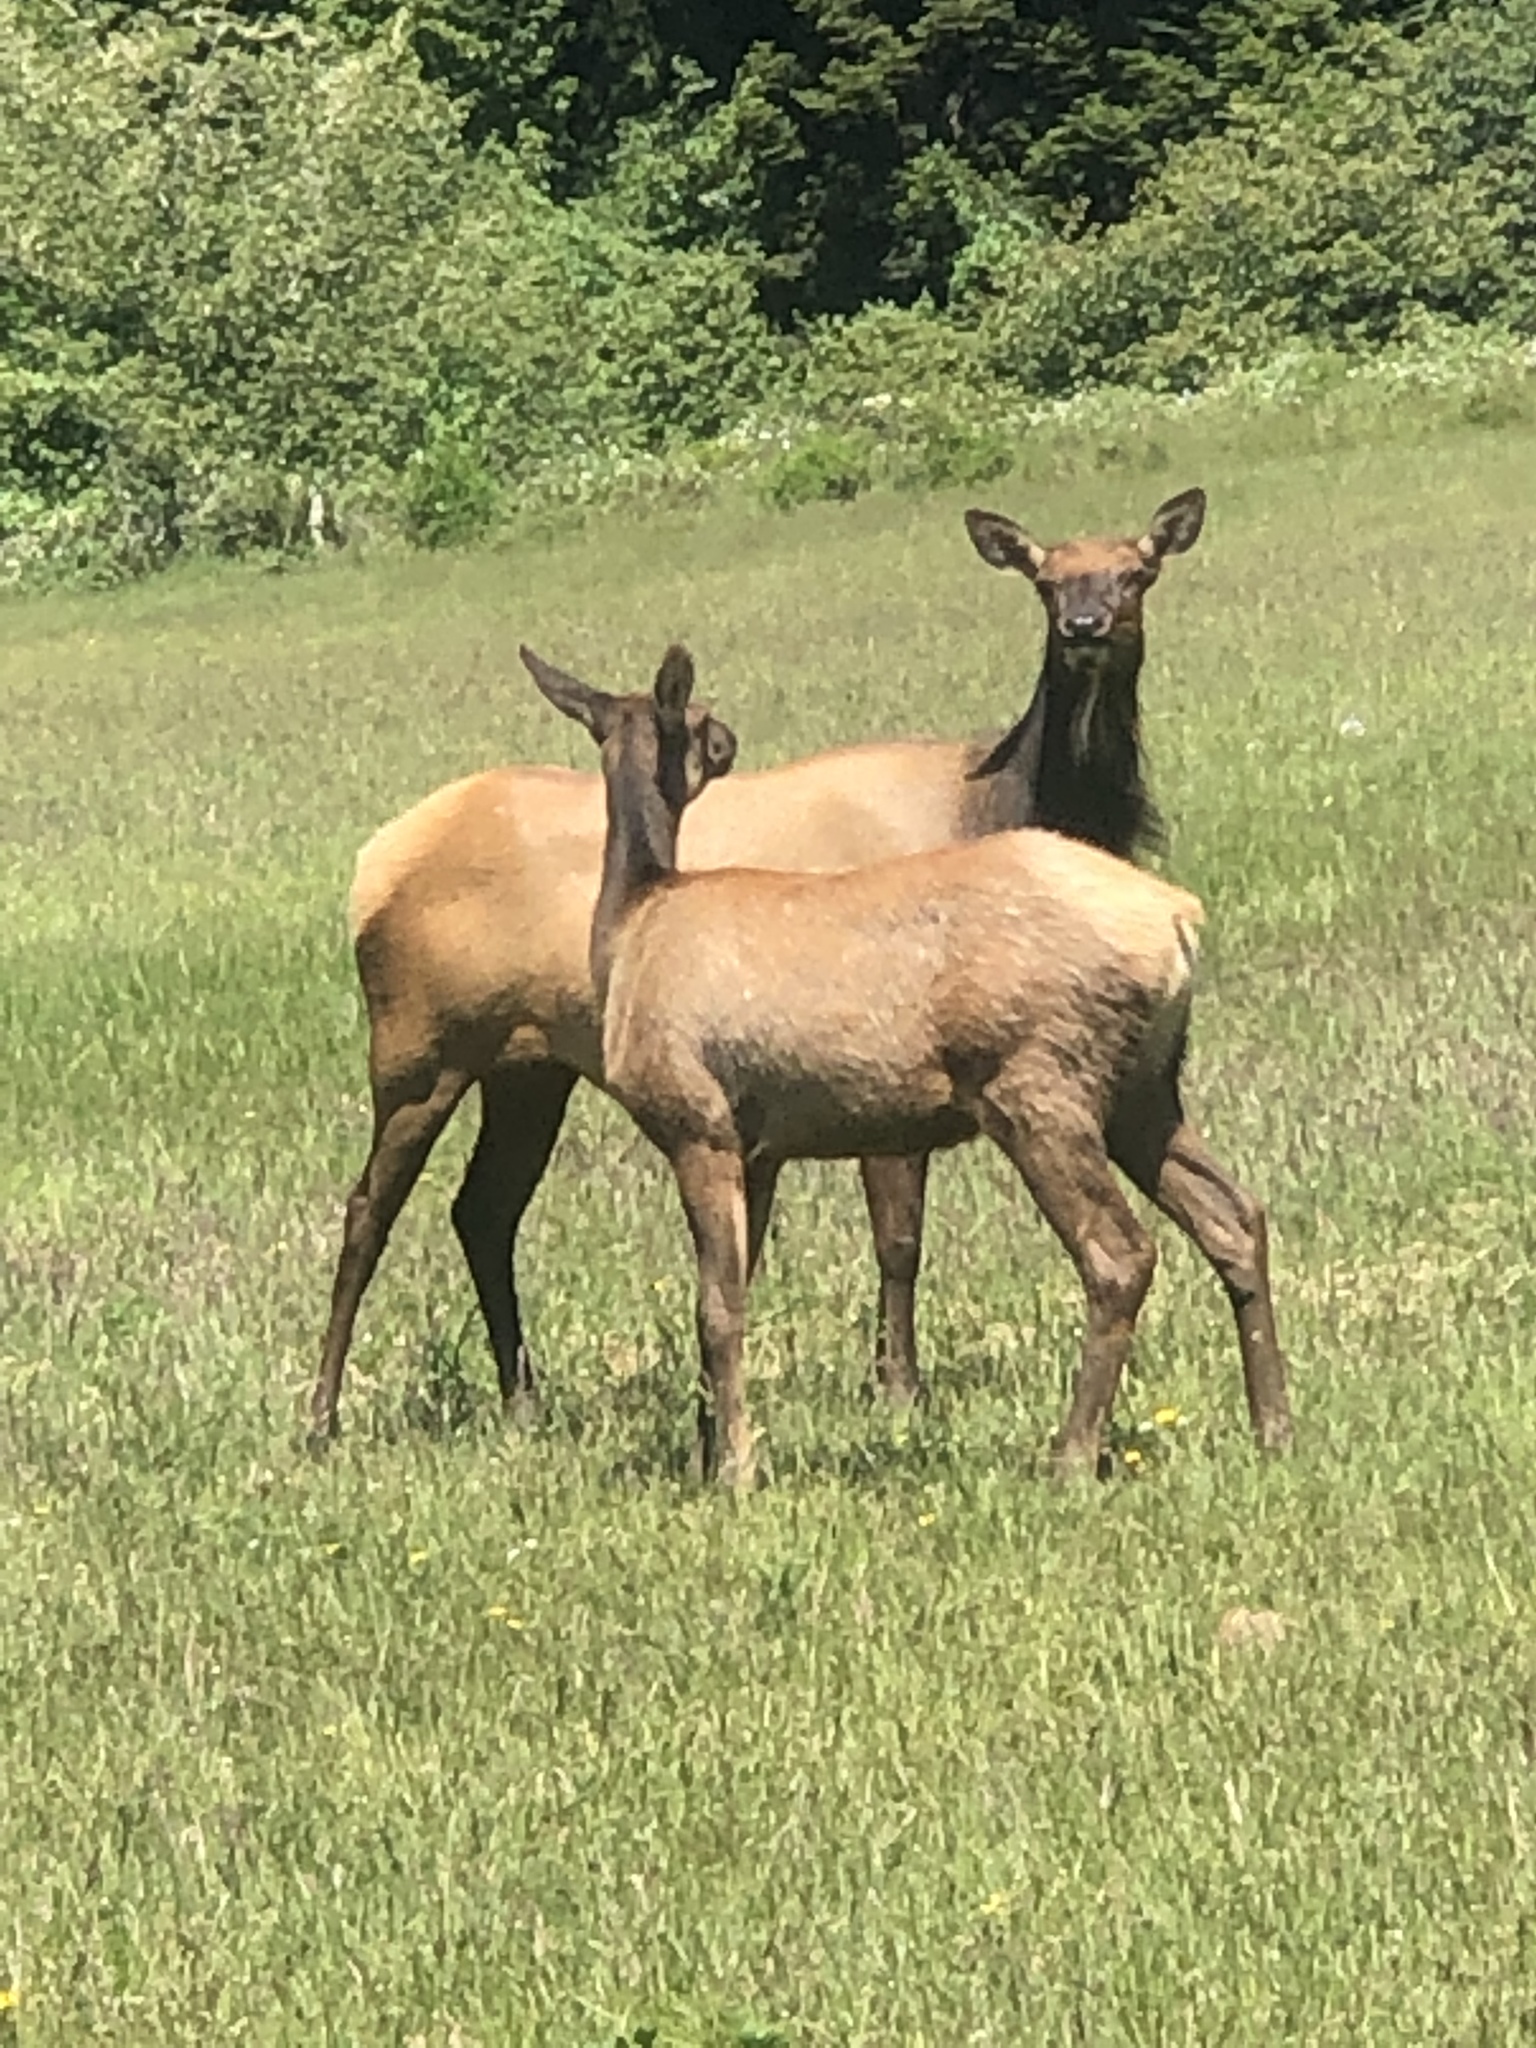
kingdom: Animalia
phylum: Chordata
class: Mammalia
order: Artiodactyla
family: Cervidae
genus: Cervus
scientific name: Cervus elaphus
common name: Red deer
